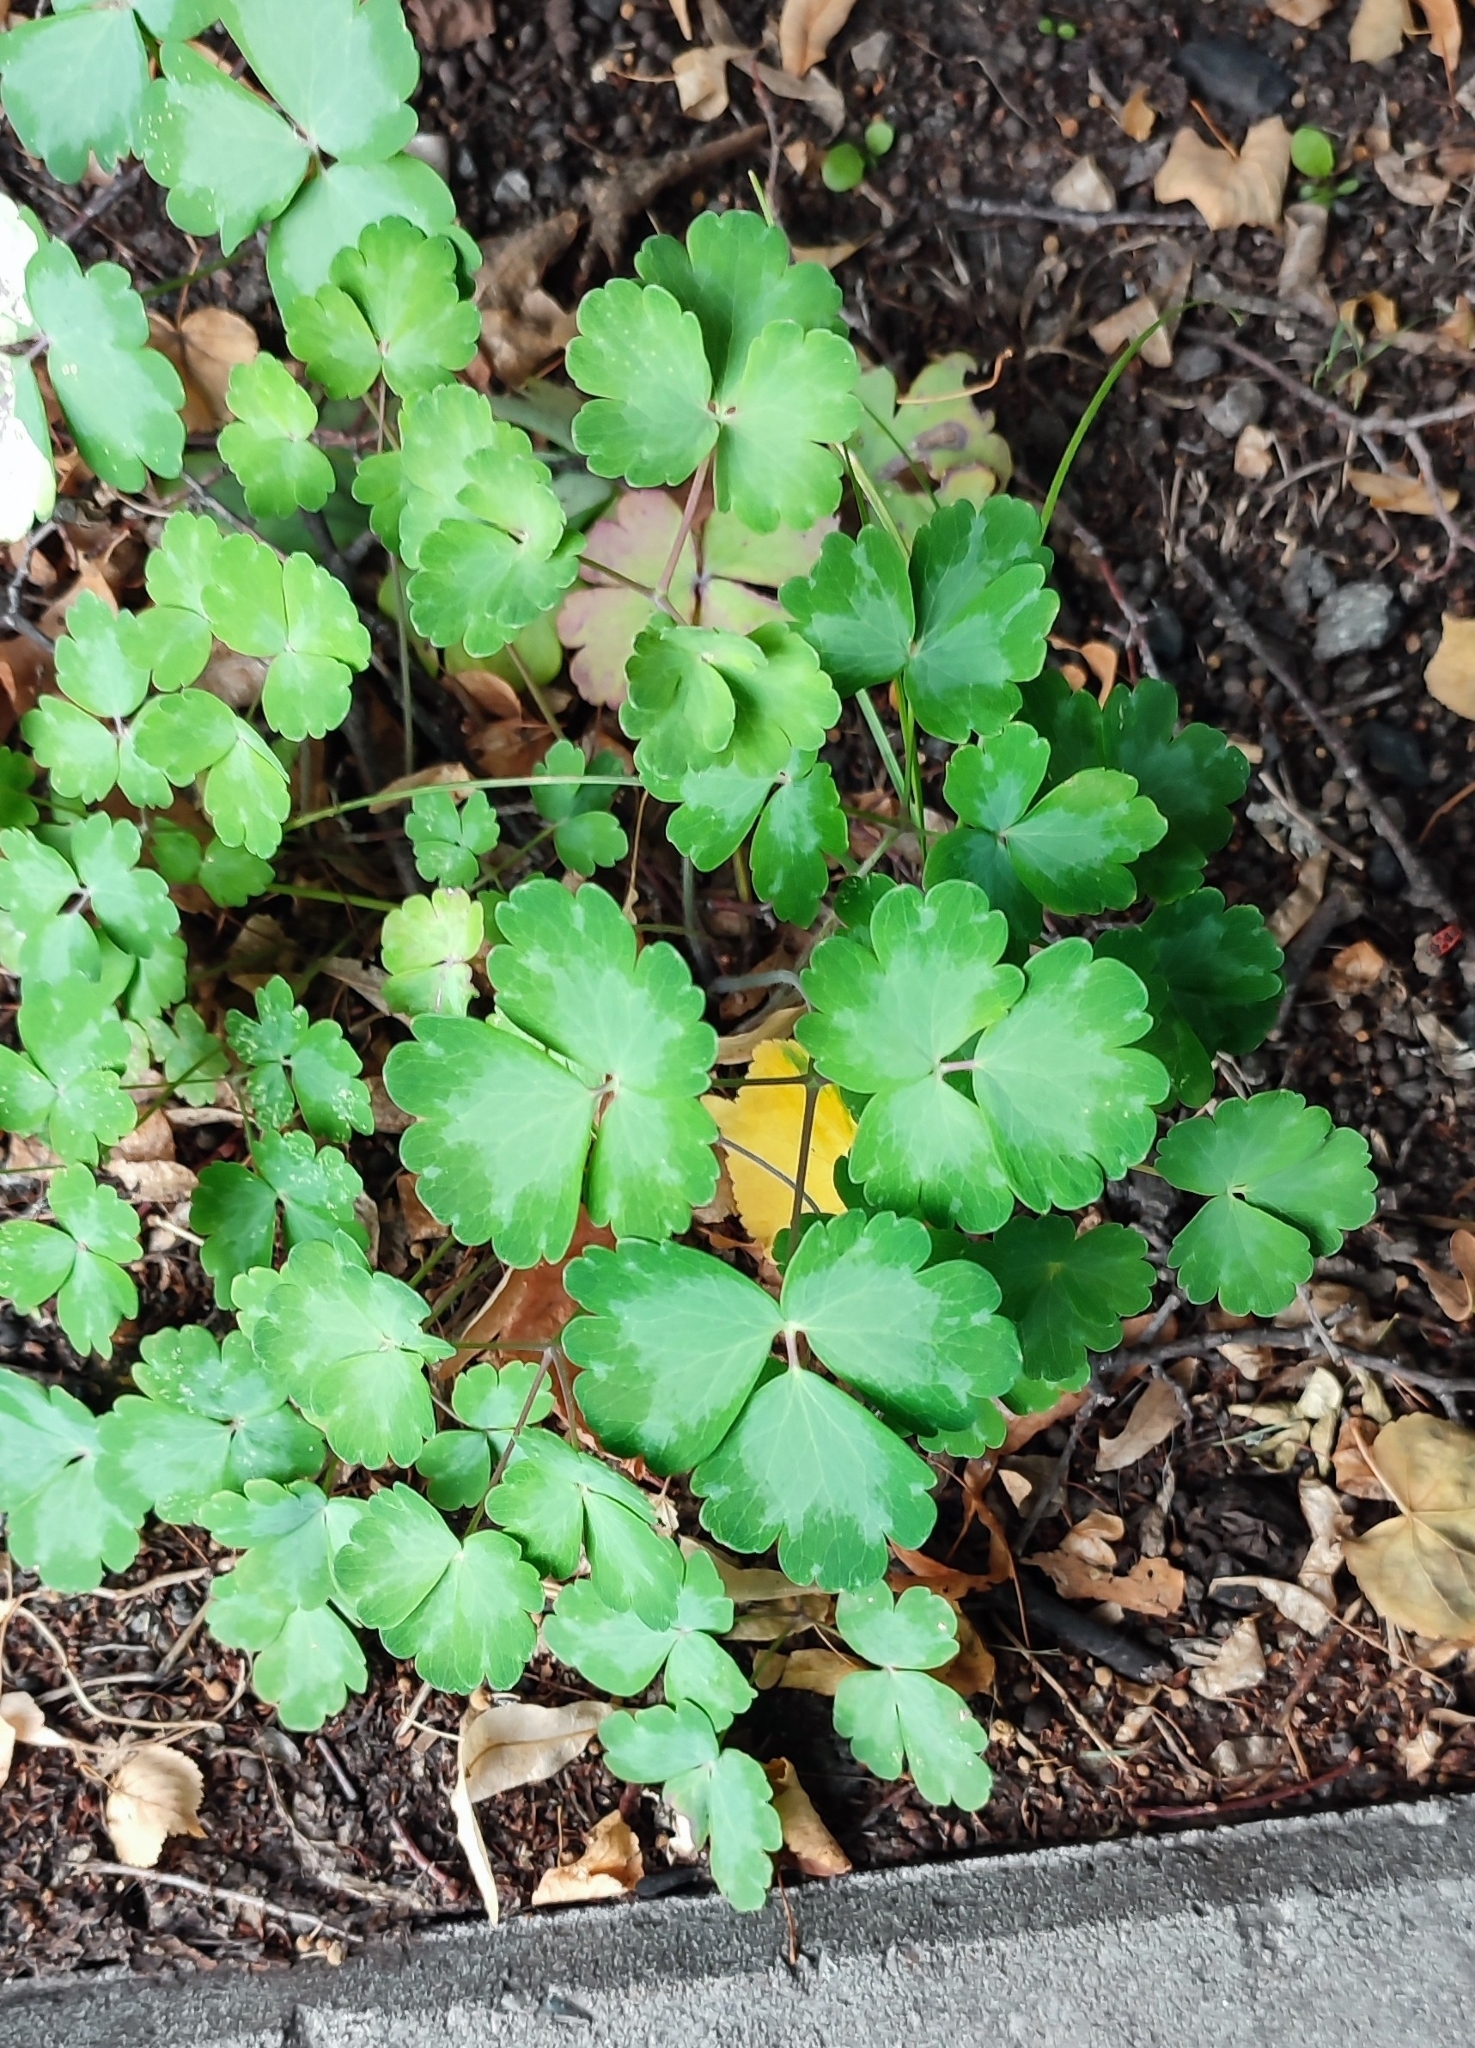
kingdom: Plantae
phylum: Tracheophyta
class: Magnoliopsida
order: Ranunculales
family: Ranunculaceae
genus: Aquilegia
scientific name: Aquilegia vulgaris
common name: Columbine
